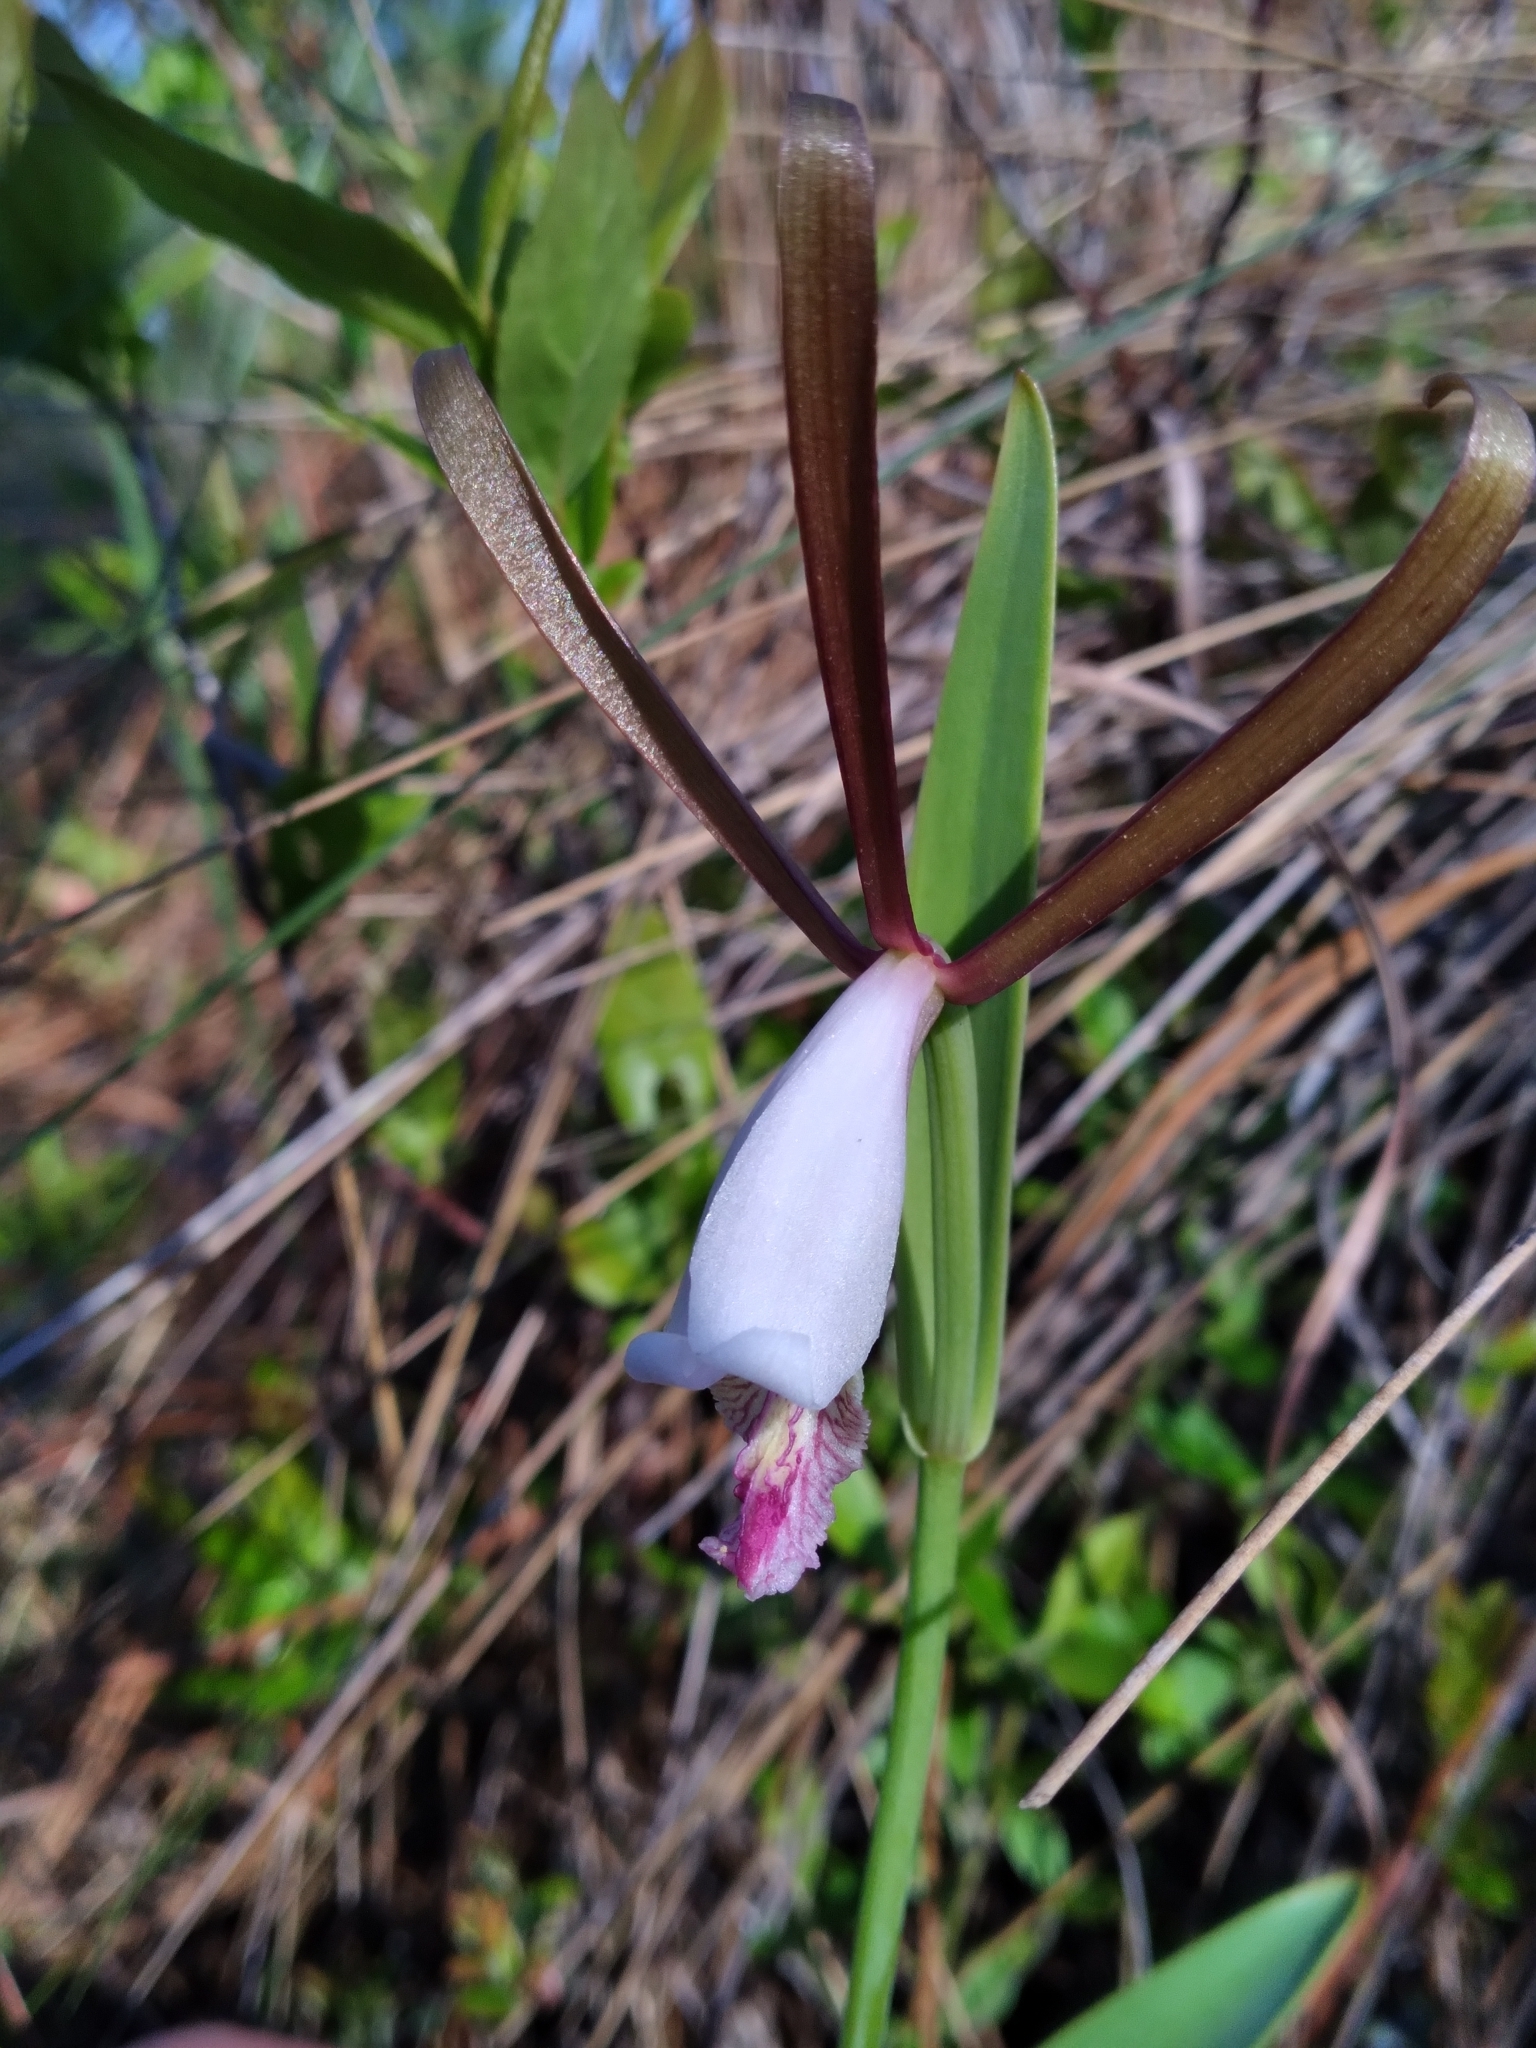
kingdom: Plantae
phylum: Tracheophyta
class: Liliopsida
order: Asparagales
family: Orchidaceae
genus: Cleistesiopsis
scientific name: Cleistesiopsis oricamporum
